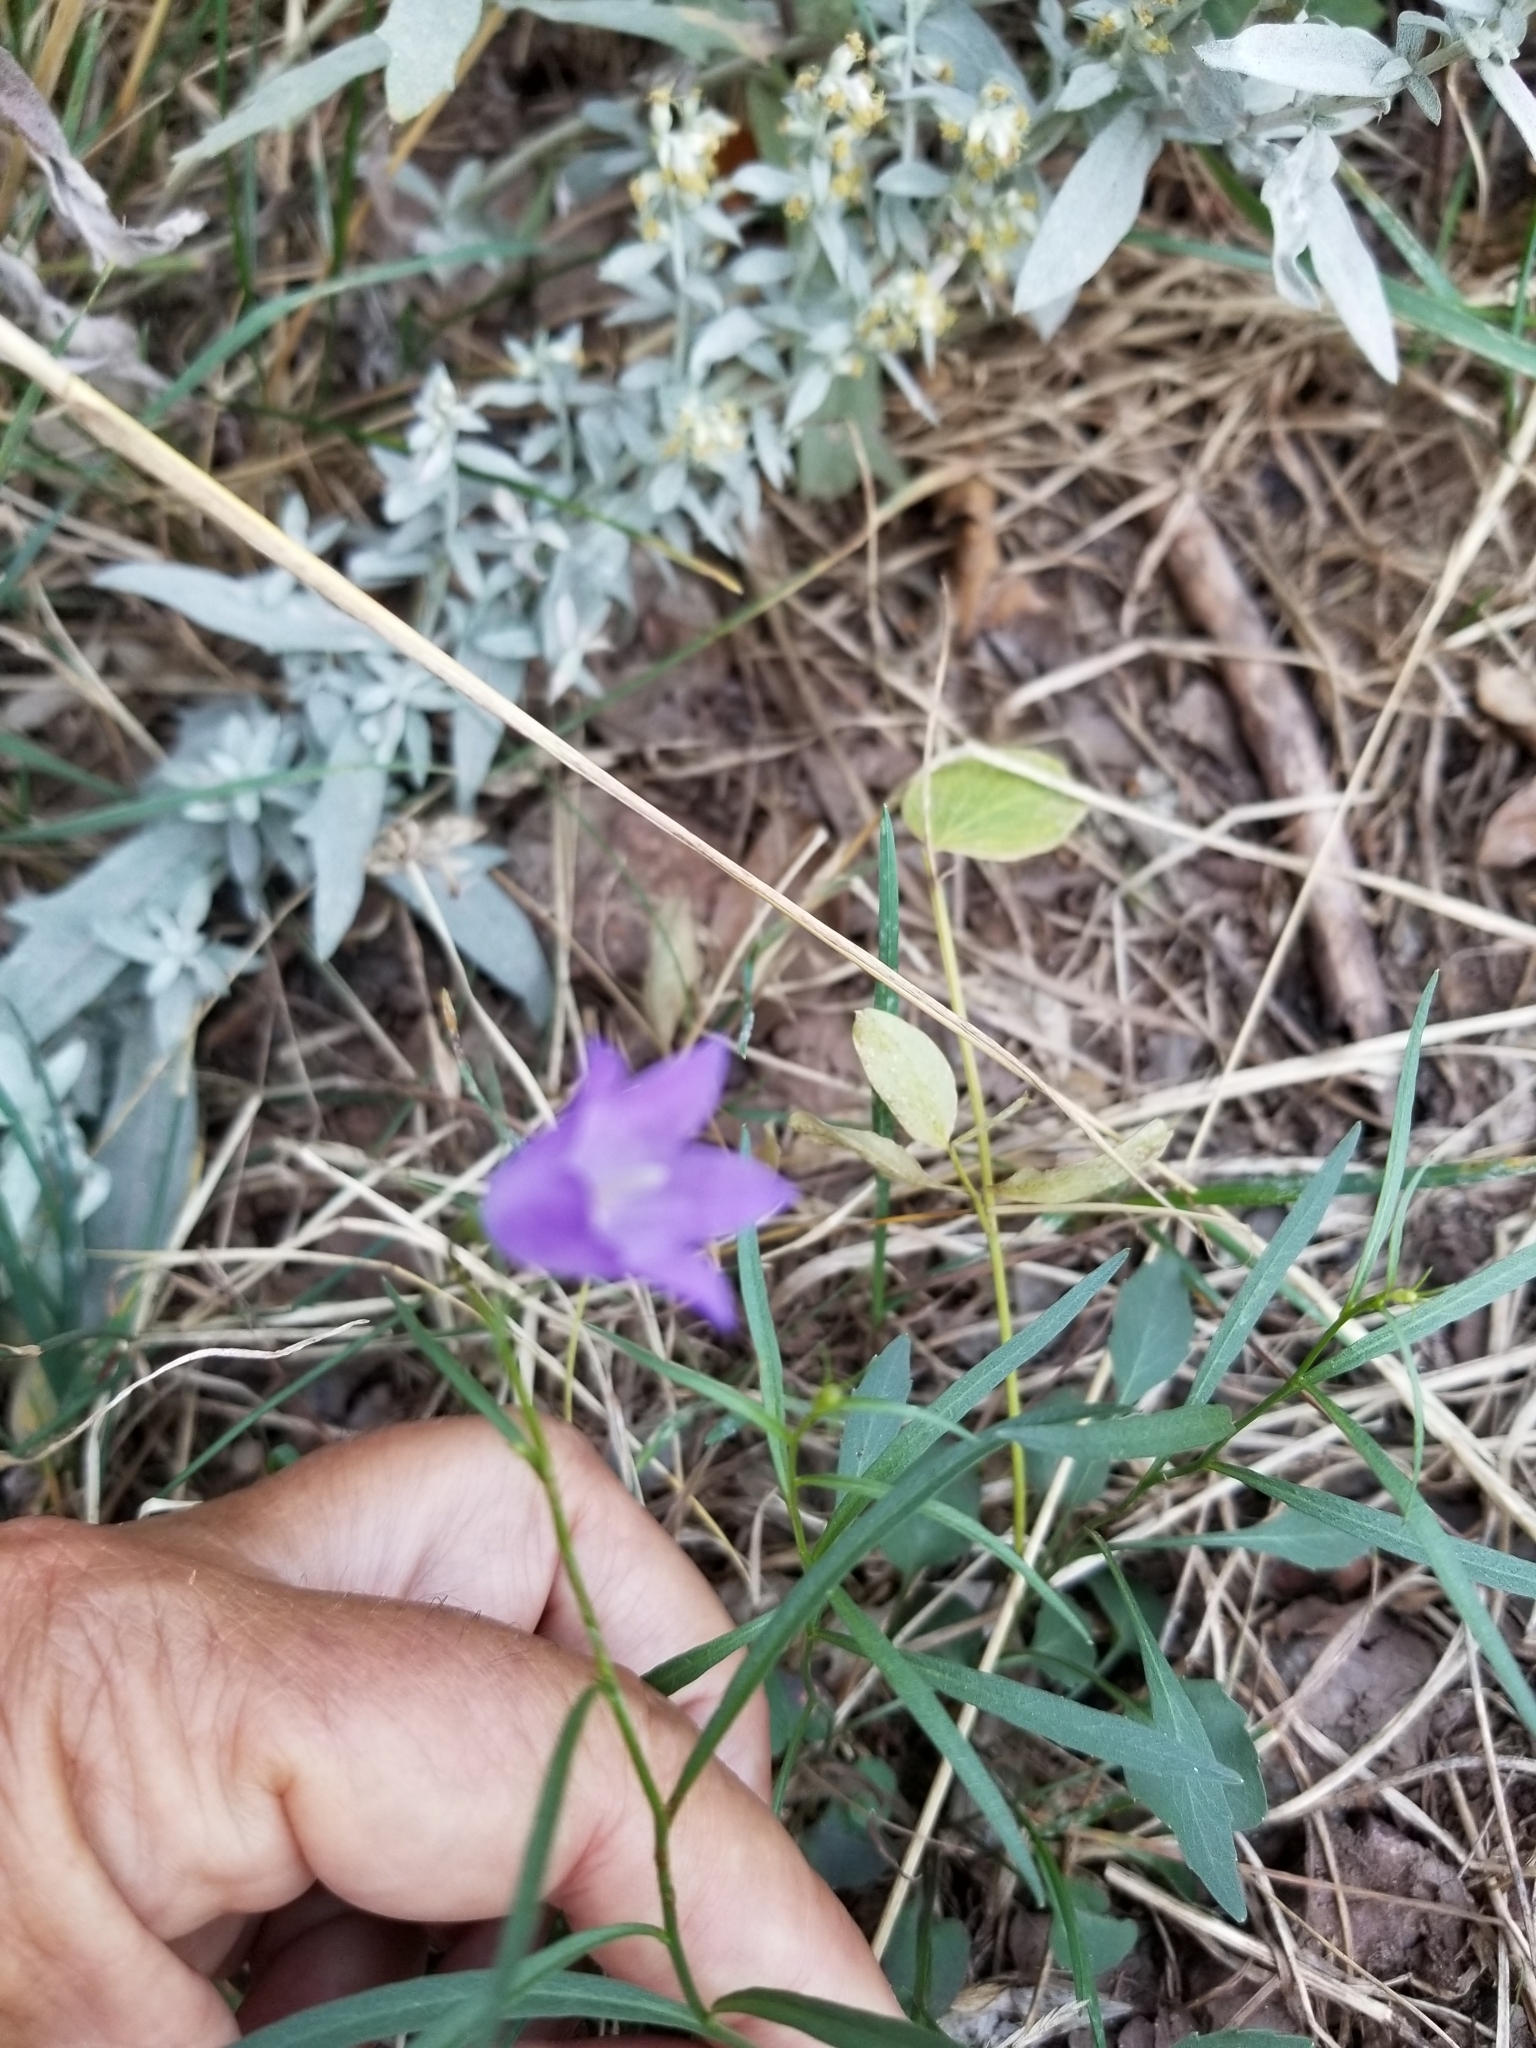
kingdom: Plantae
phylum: Tracheophyta
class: Magnoliopsida
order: Asterales
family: Campanulaceae
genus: Campanula
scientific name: Campanula petiolata
